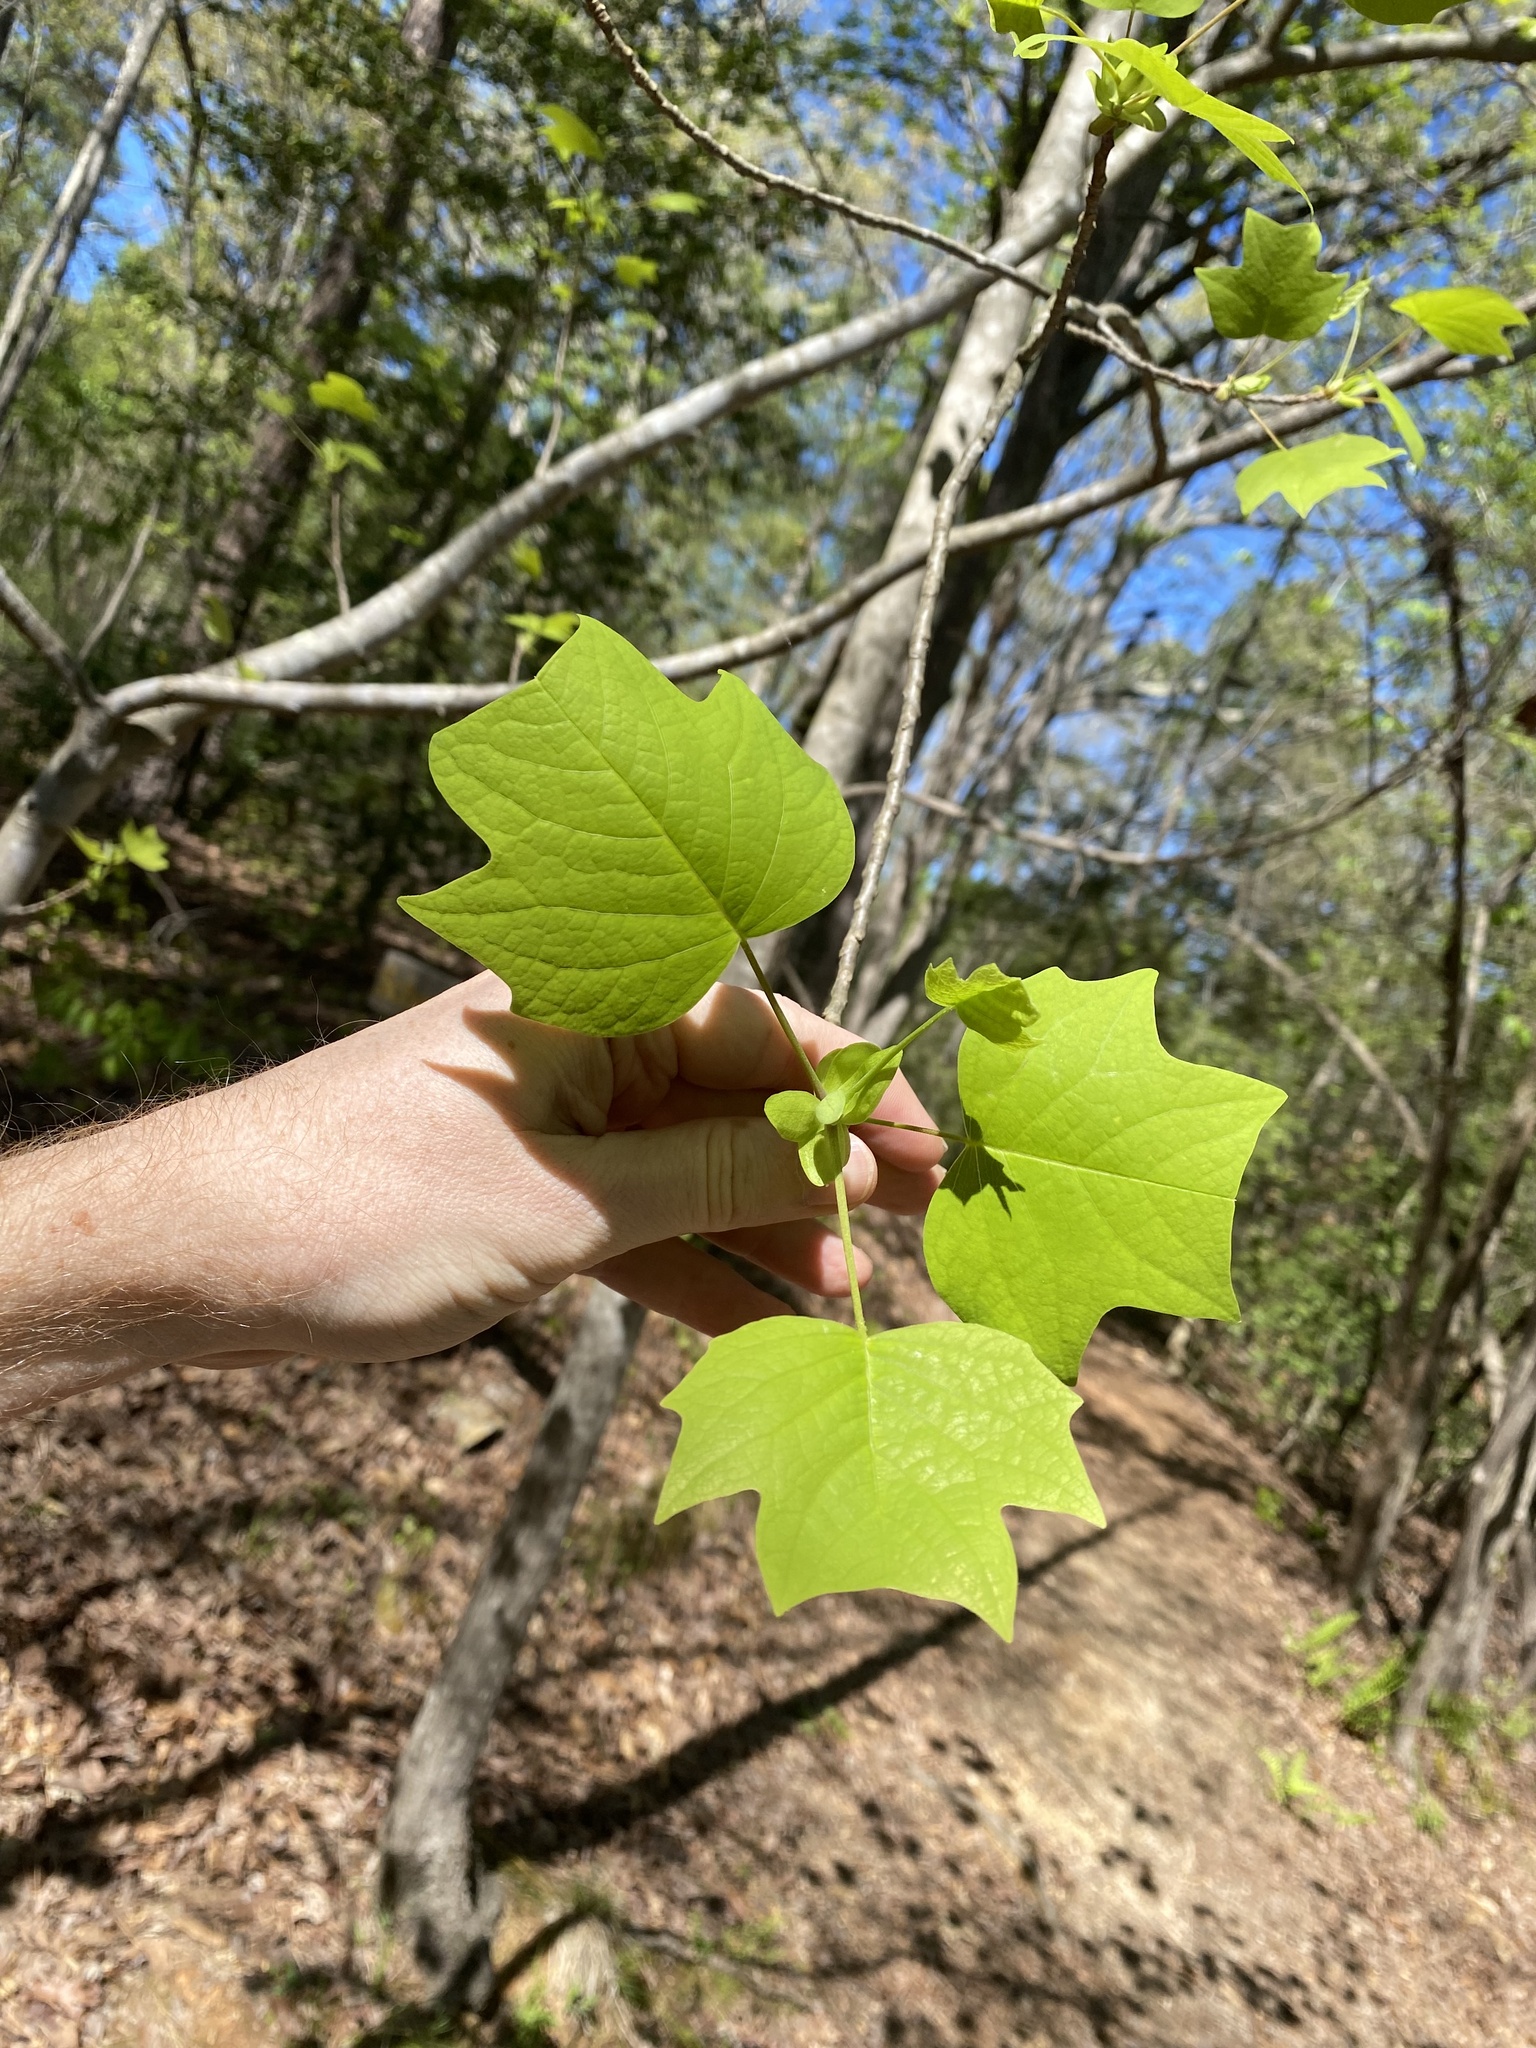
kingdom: Plantae
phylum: Tracheophyta
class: Magnoliopsida
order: Magnoliales
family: Magnoliaceae
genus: Liriodendron
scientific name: Liriodendron tulipifera
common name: Tulip tree
